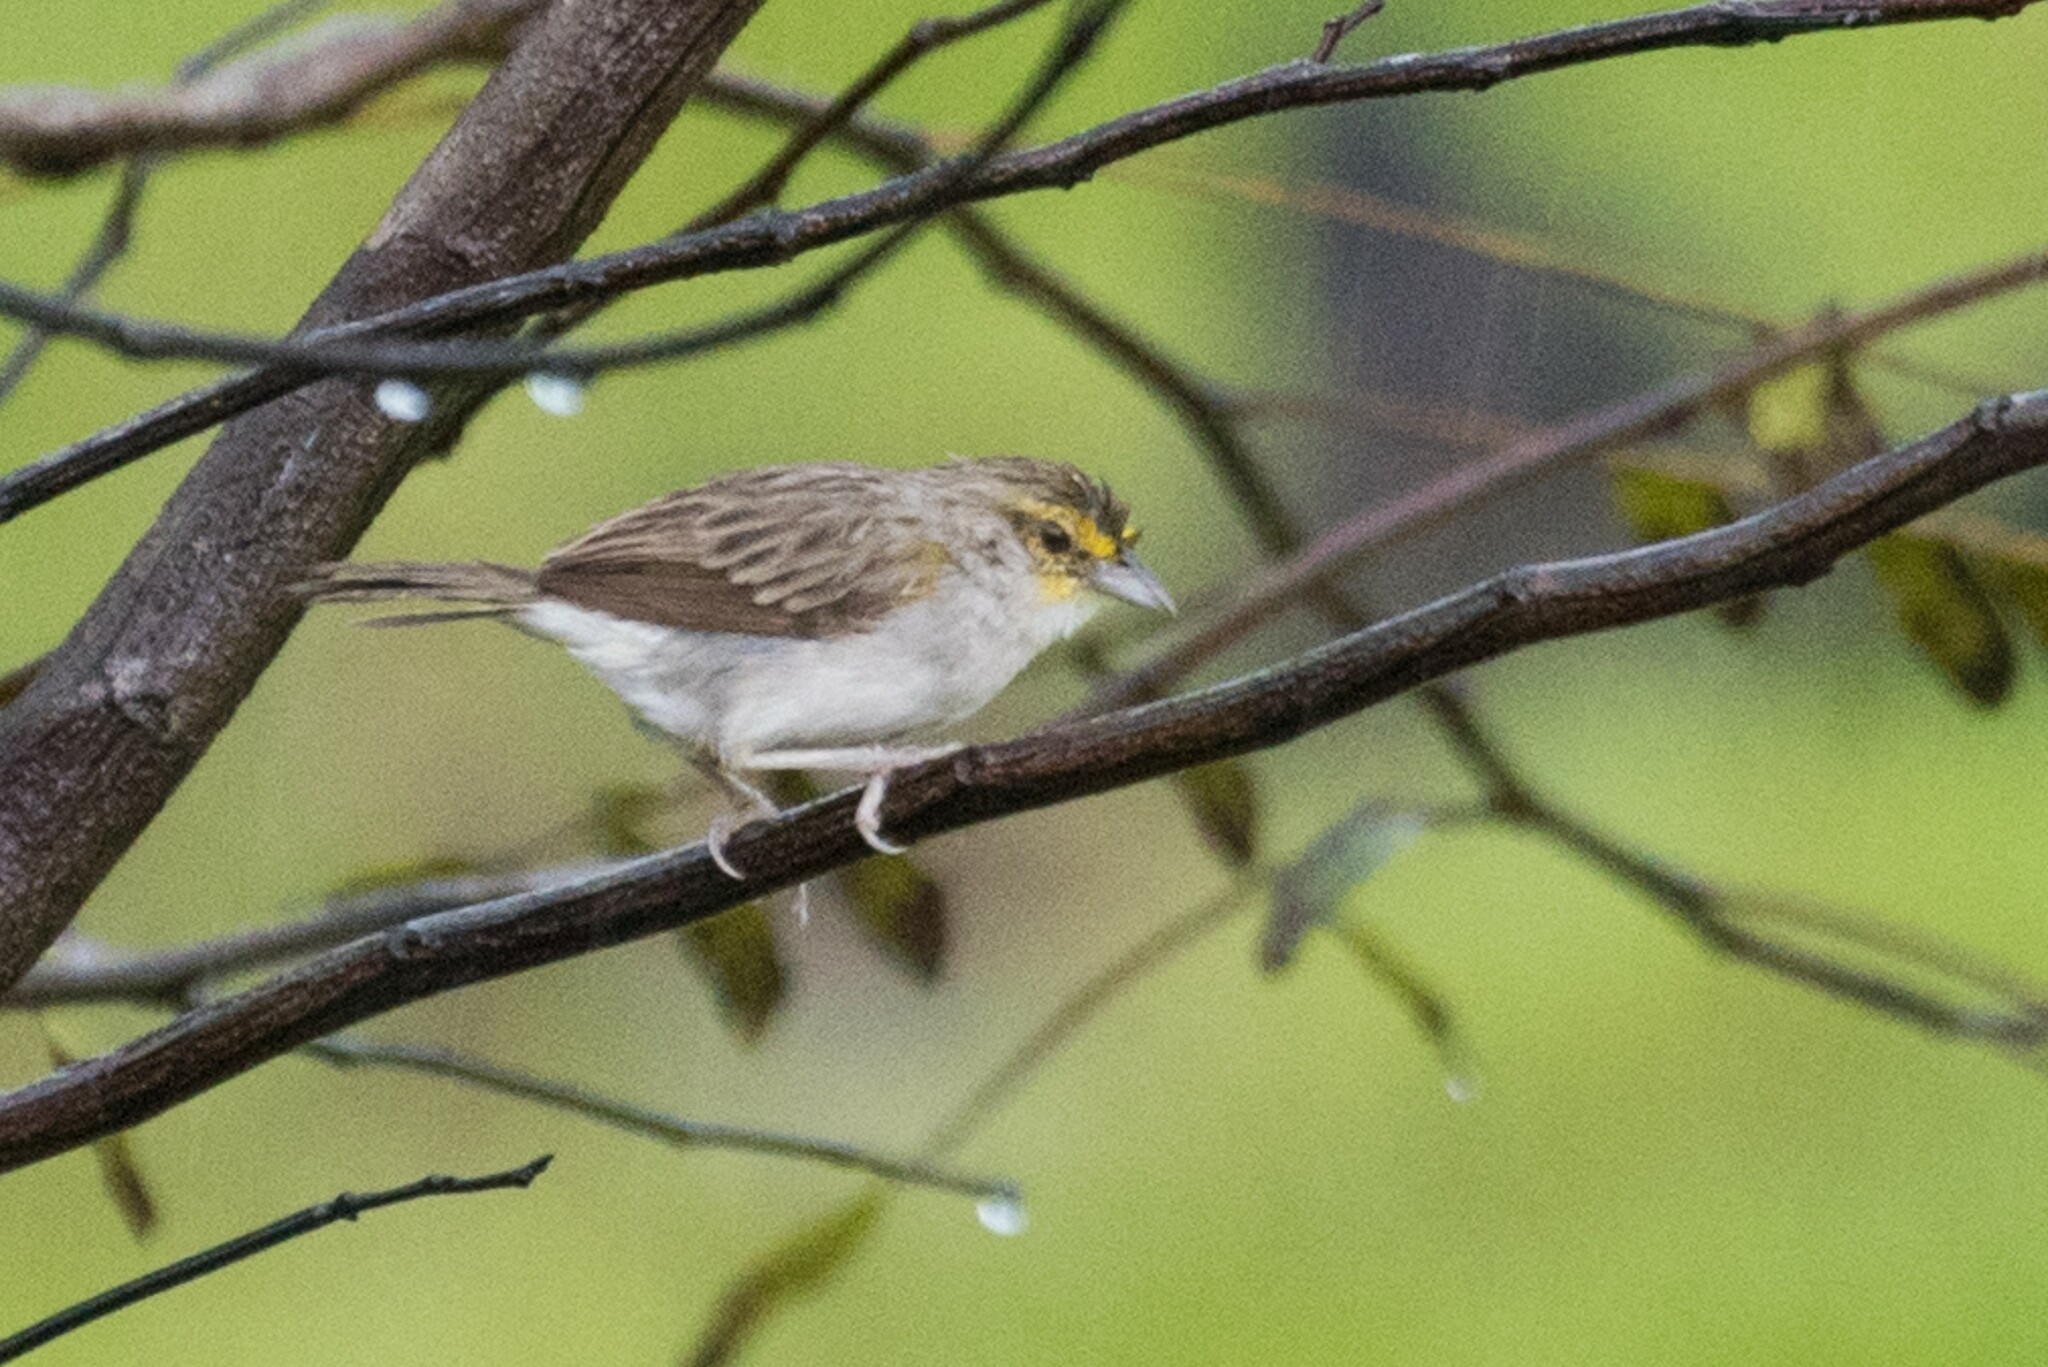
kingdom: Animalia
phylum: Chordata
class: Aves
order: Passeriformes
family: Passerellidae
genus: Ammodramus
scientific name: Ammodramus aurifrons
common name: Yellow-browed sparrow
